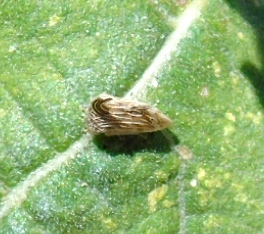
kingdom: Animalia
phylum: Arthropoda
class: Insecta
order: Hemiptera
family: Membracidae
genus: Entylia
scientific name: Entylia
